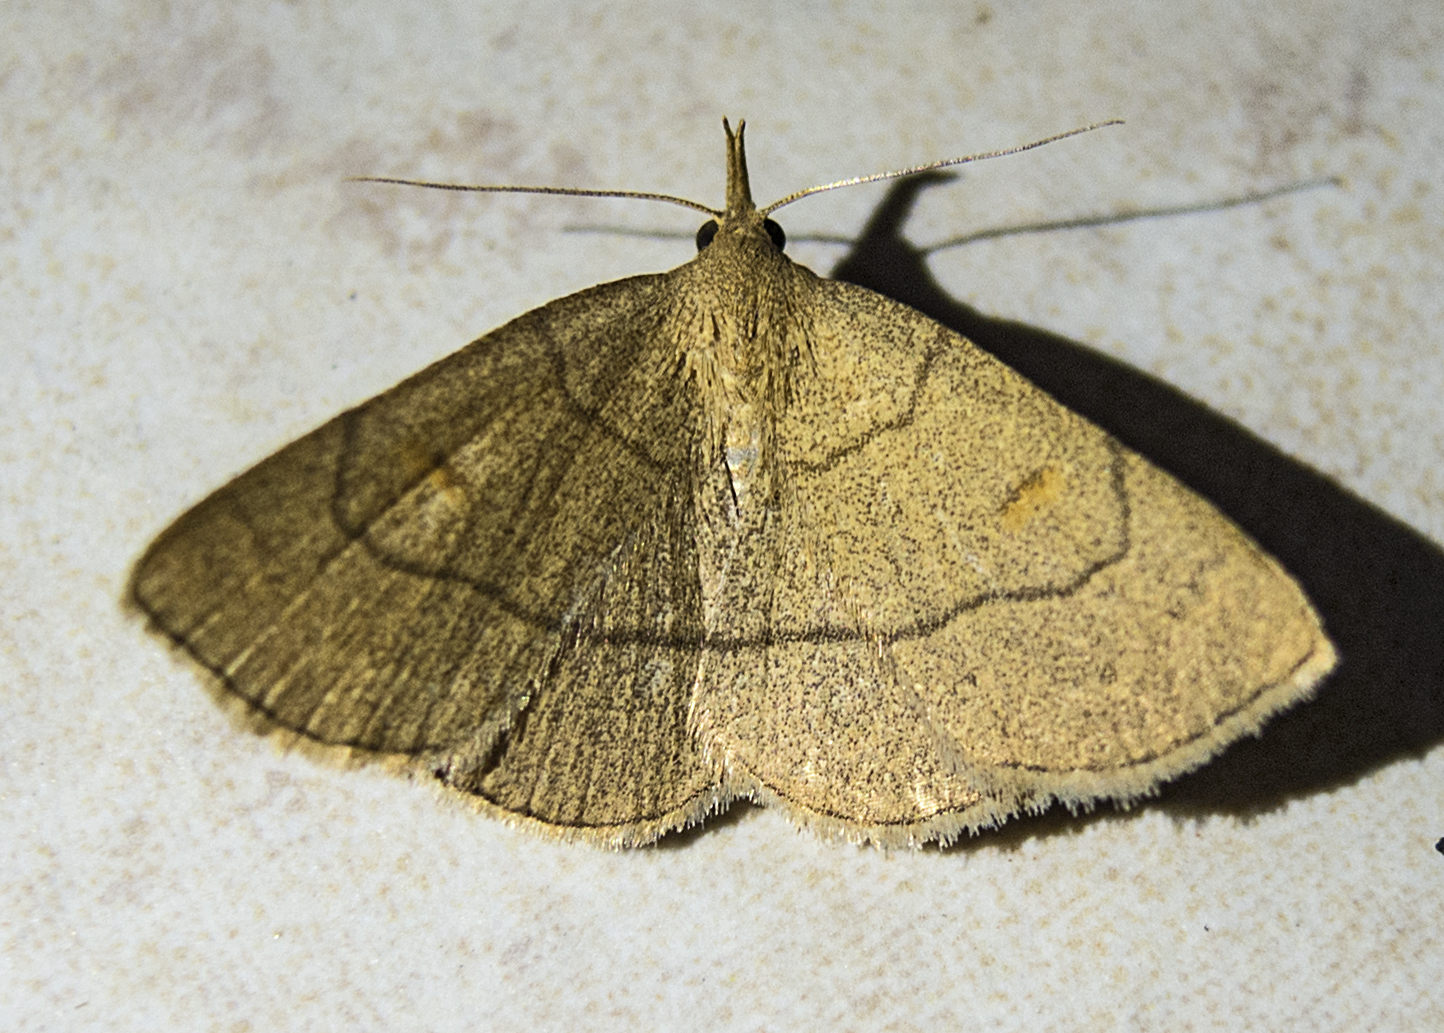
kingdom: Animalia
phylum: Arthropoda
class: Insecta
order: Lepidoptera
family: Erebidae
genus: Paracolax
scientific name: Paracolax tristalis
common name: Clay fan-foot
